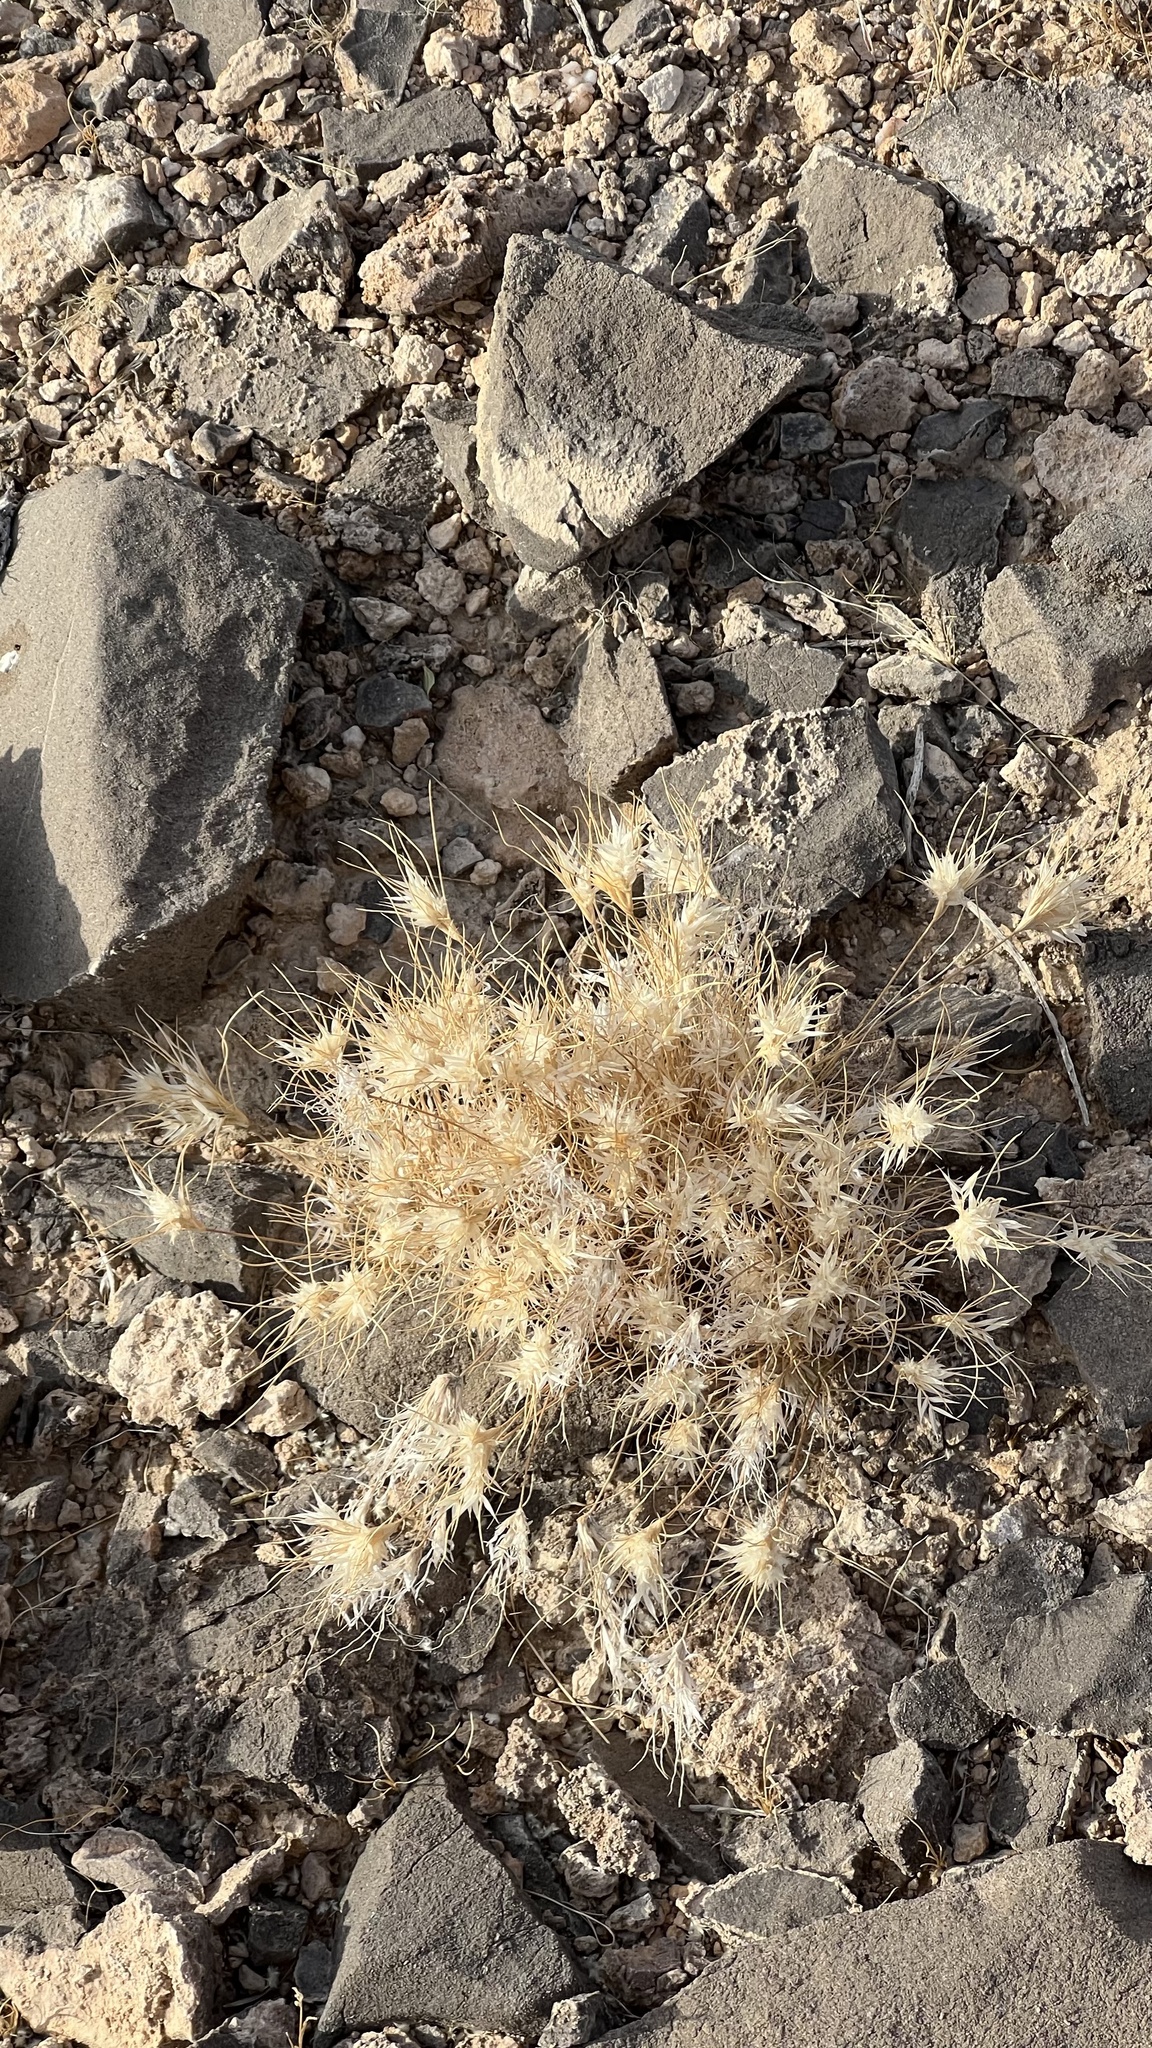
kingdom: Plantae
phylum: Tracheophyta
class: Liliopsida
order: Poales
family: Poaceae
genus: Dasyochloa
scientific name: Dasyochloa pulchella
